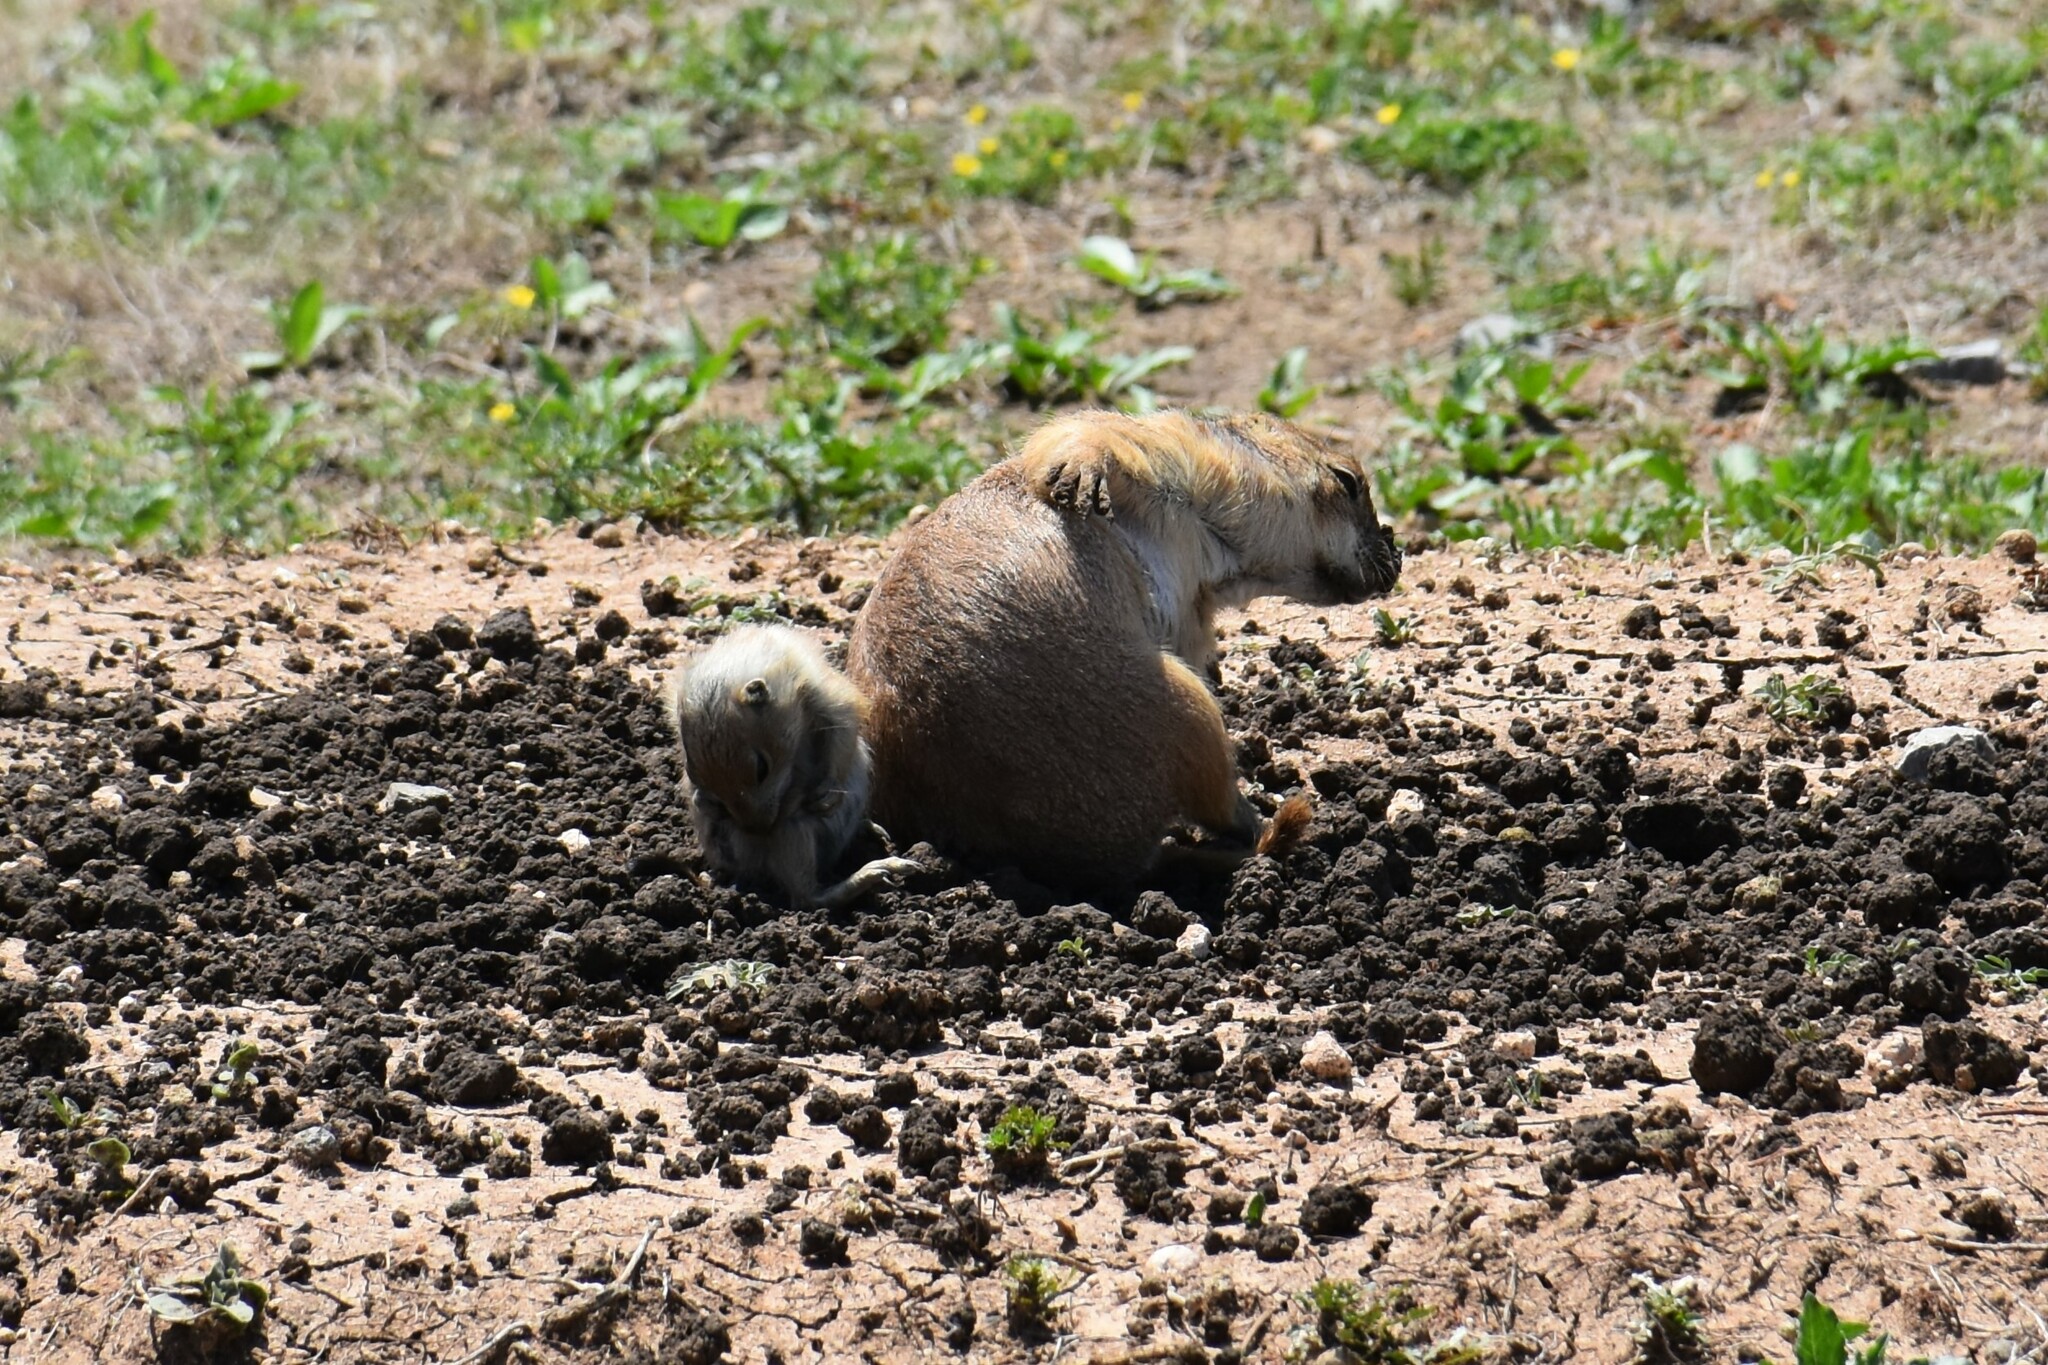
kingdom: Animalia
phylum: Chordata
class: Mammalia
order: Rodentia
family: Sciuridae
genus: Cynomys
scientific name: Cynomys ludovicianus
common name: Black-tailed prairie dog
